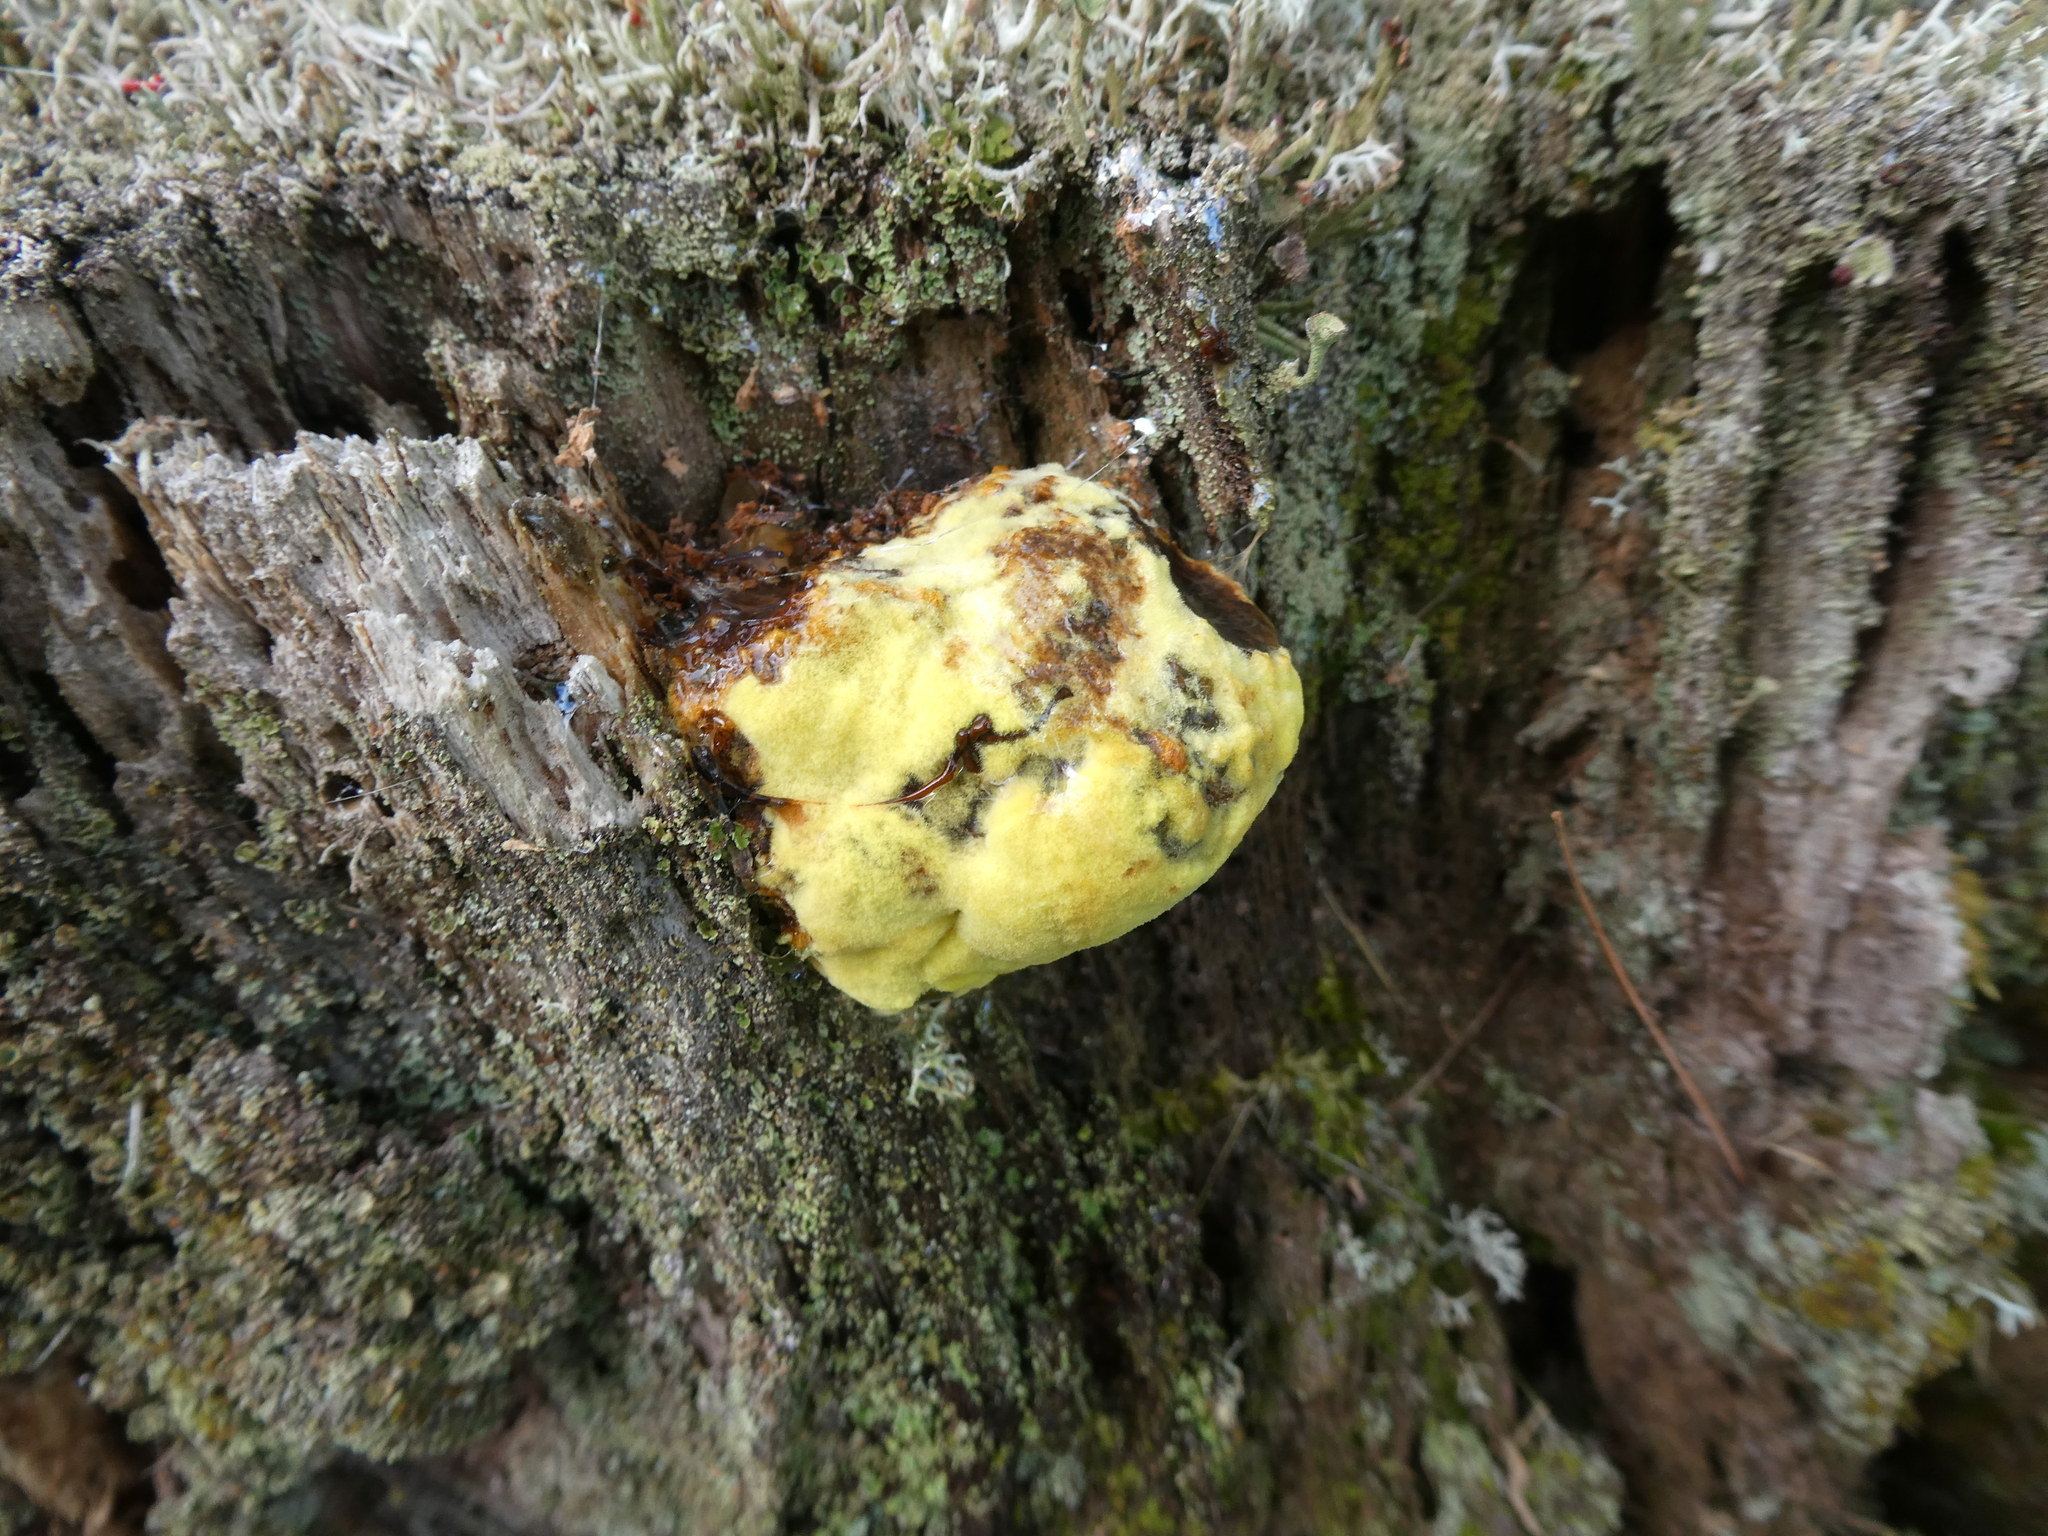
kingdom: Fungi
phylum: Basidiomycota
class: Agaricomycetes
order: Polyporales
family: Laetiporaceae
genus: Phaeolus
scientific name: Phaeolus schweinitzii
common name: Dyer's mazegill
